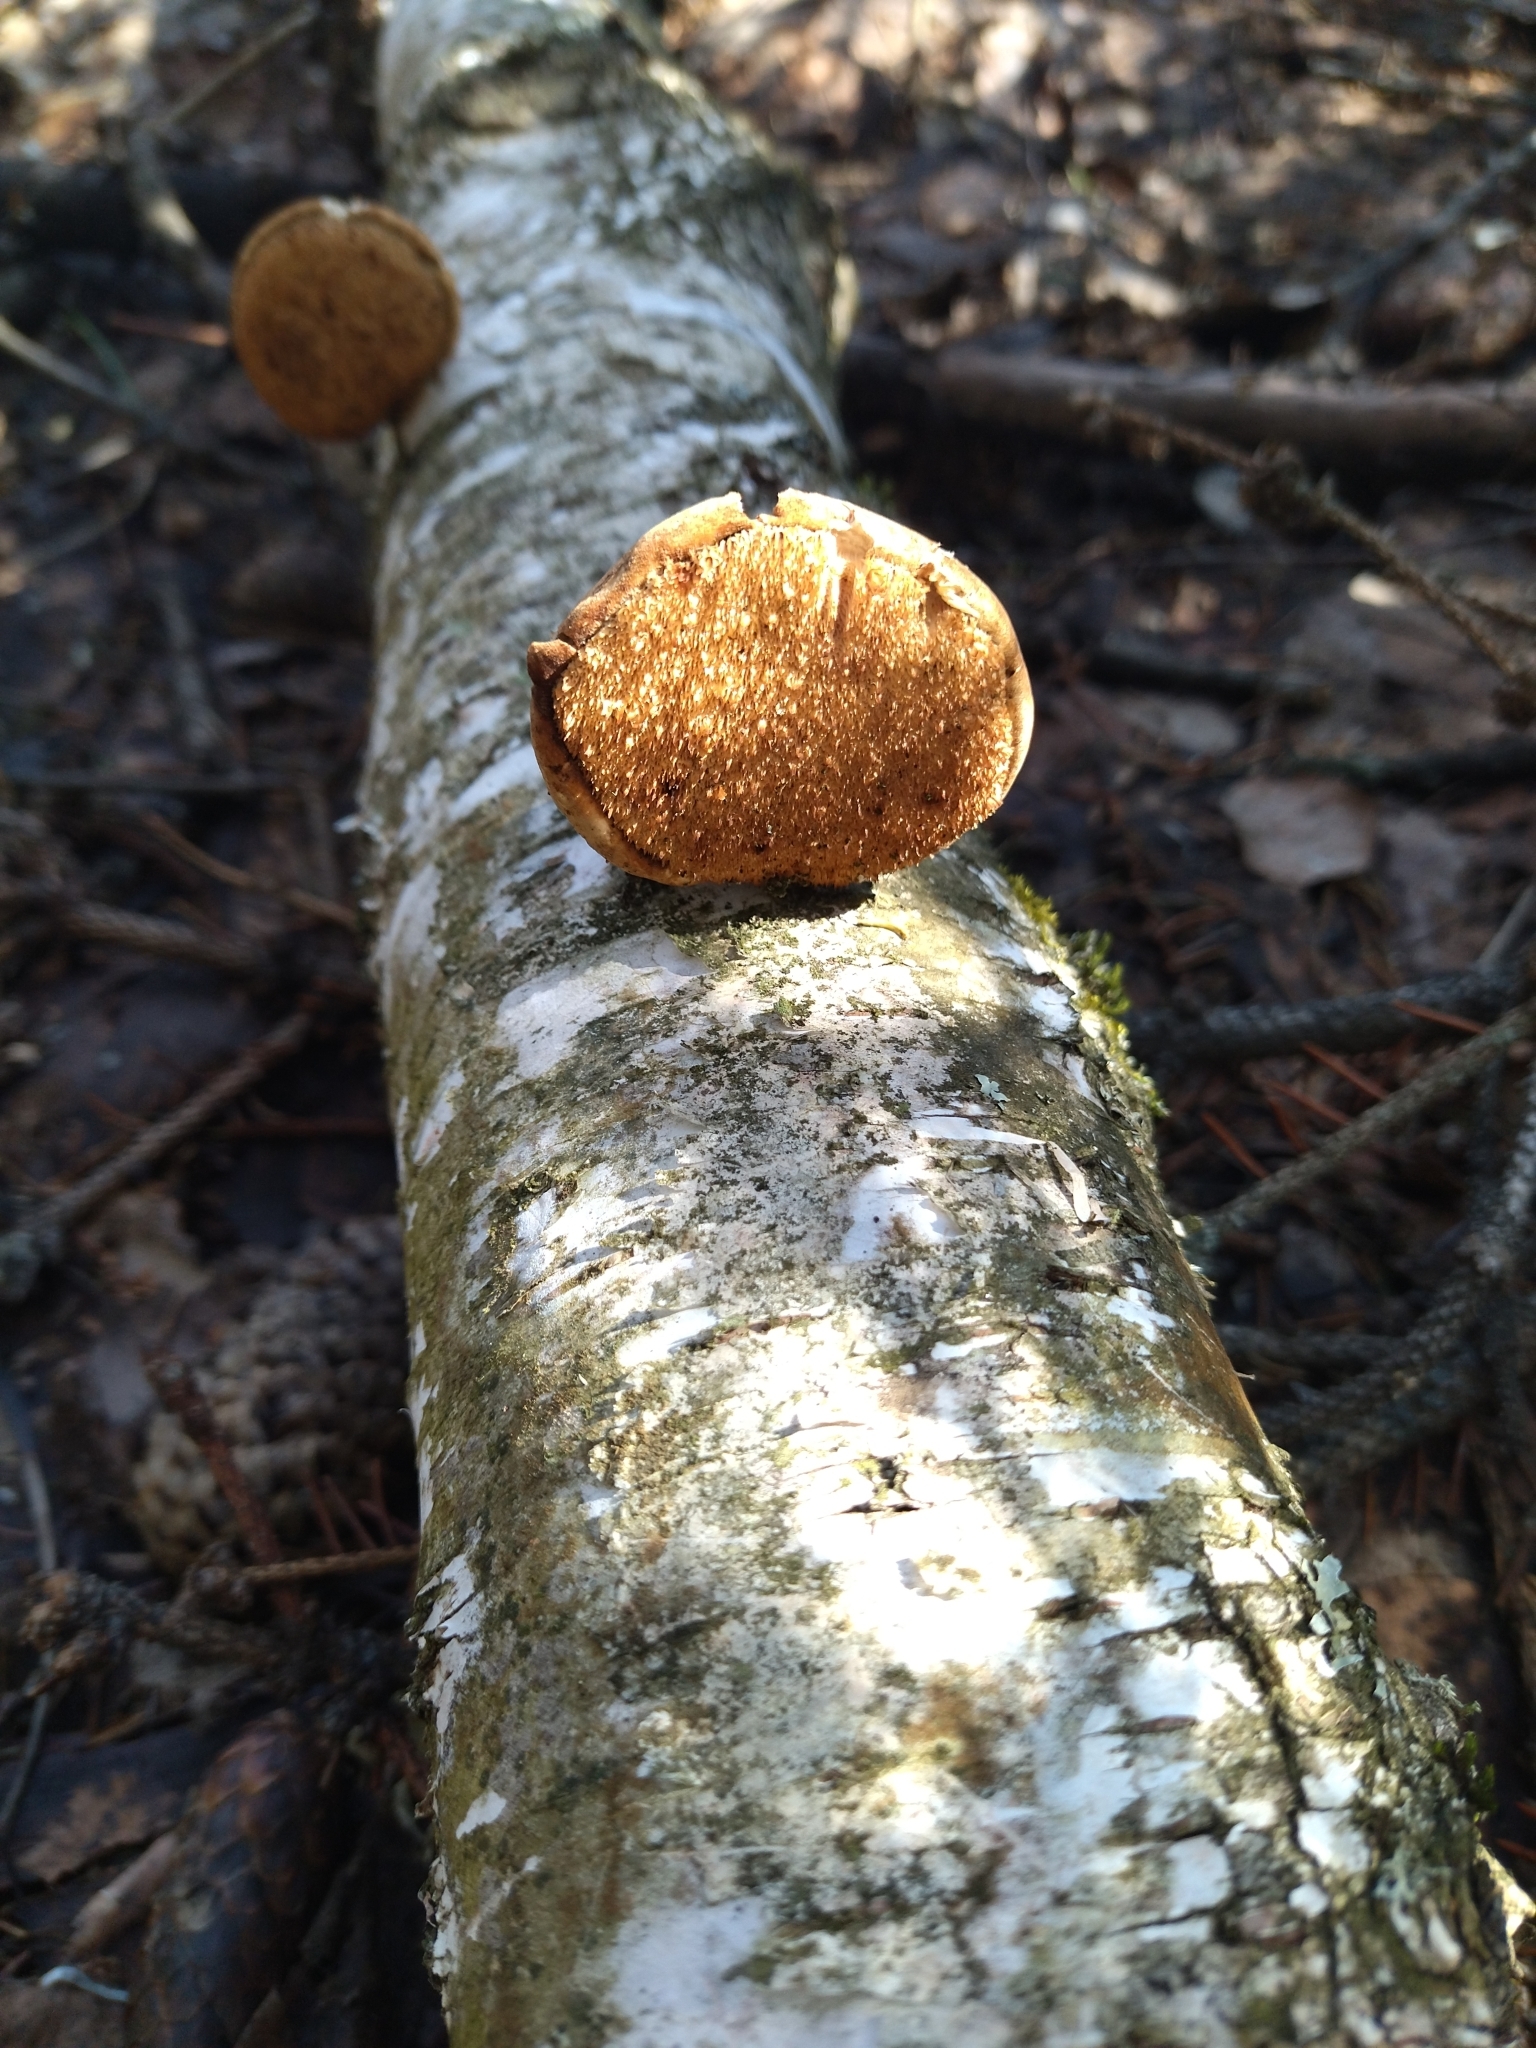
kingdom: Fungi
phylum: Basidiomycota
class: Agaricomycetes
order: Polyporales
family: Fomitopsidaceae
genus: Fomitopsis
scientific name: Fomitopsis betulina
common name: Birch polypore
